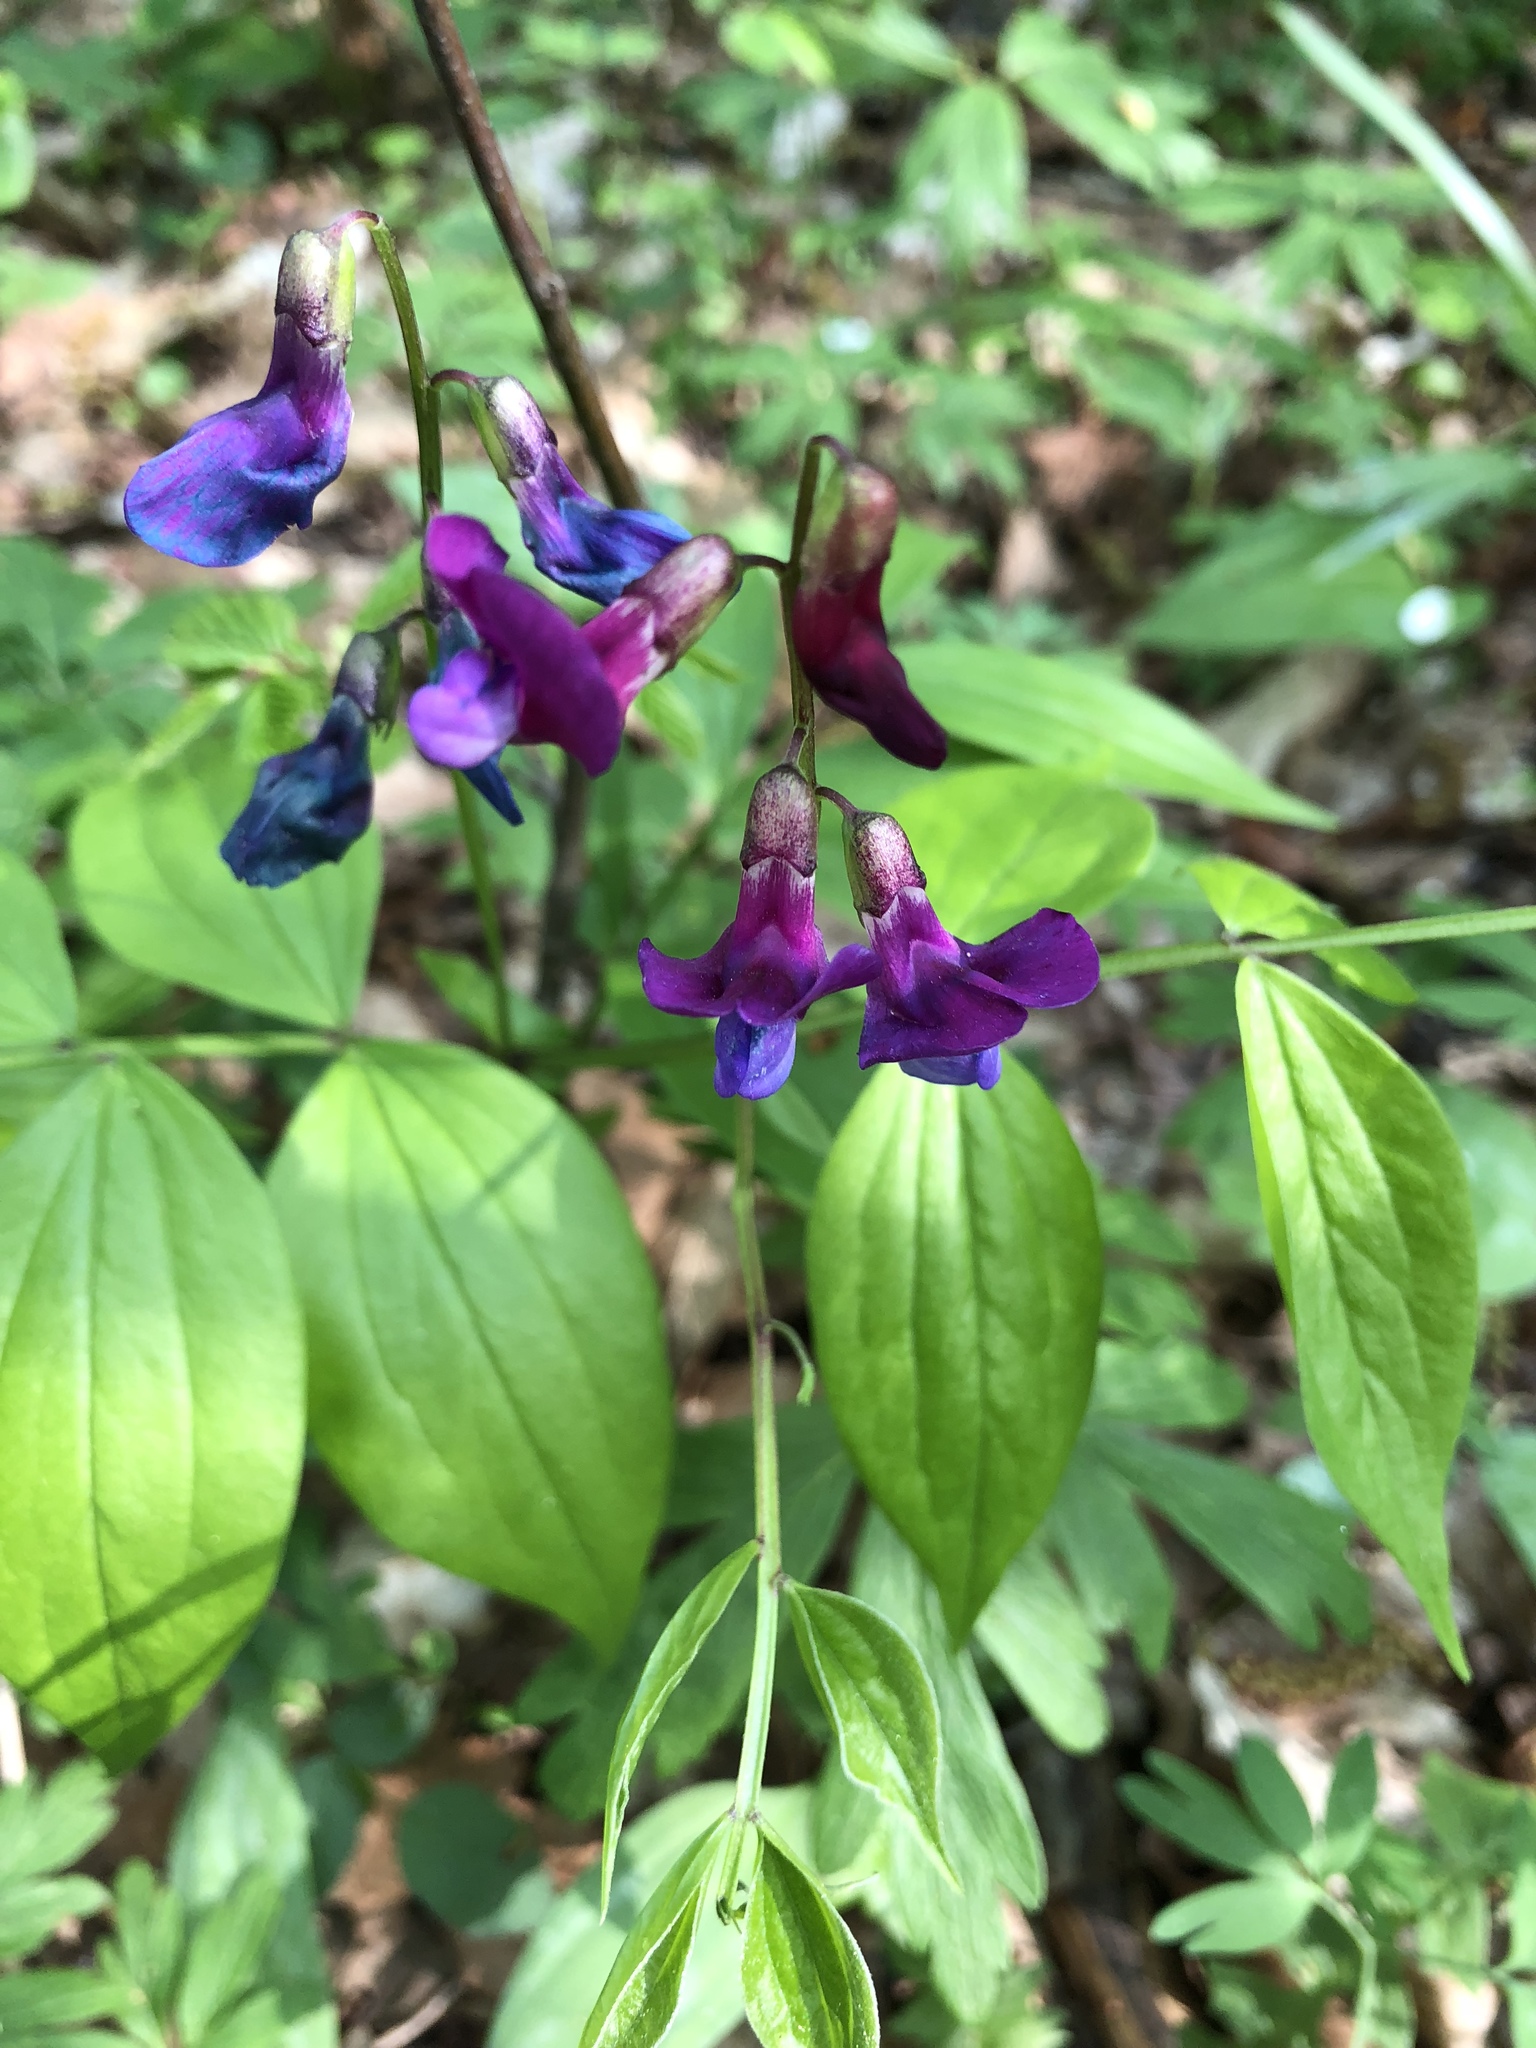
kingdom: Plantae
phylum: Tracheophyta
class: Magnoliopsida
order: Fabales
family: Fabaceae
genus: Lathyrus
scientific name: Lathyrus vernus
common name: Spring pea
